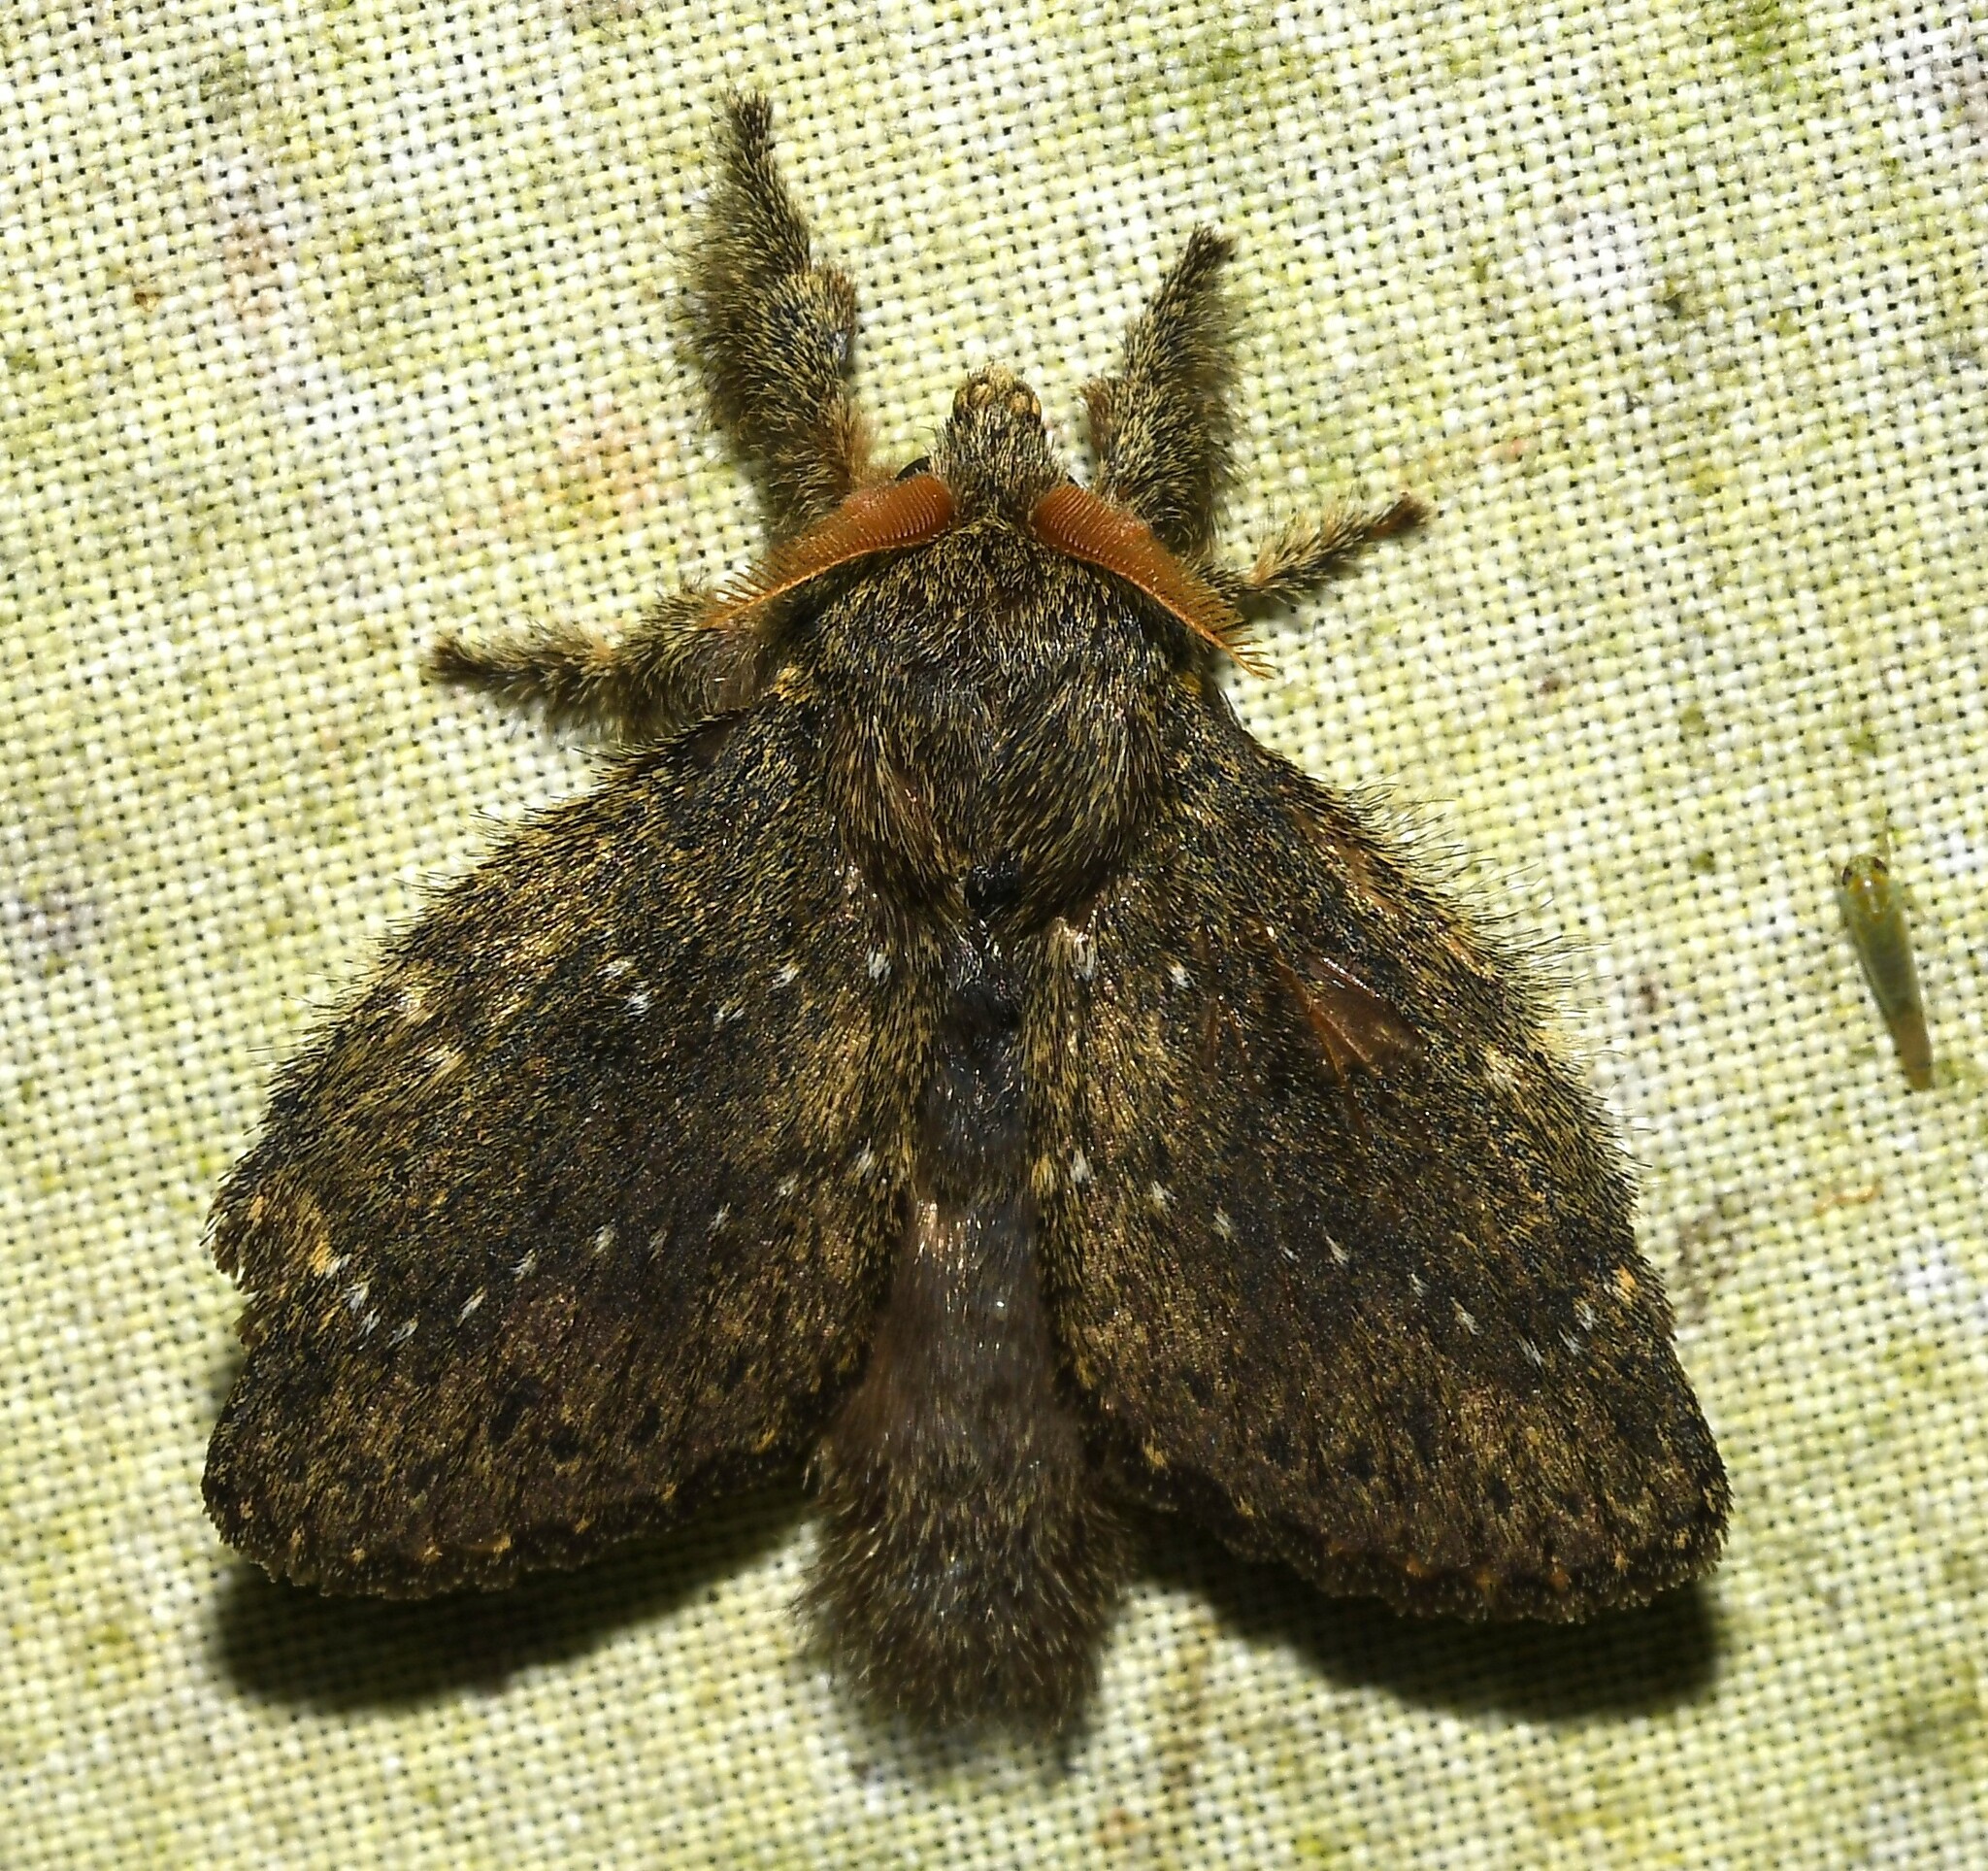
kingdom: Animalia
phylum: Arthropoda
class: Insecta
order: Lepidoptera
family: Lasiocampidae
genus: Euglyphis
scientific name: Euglyphis melancholica
